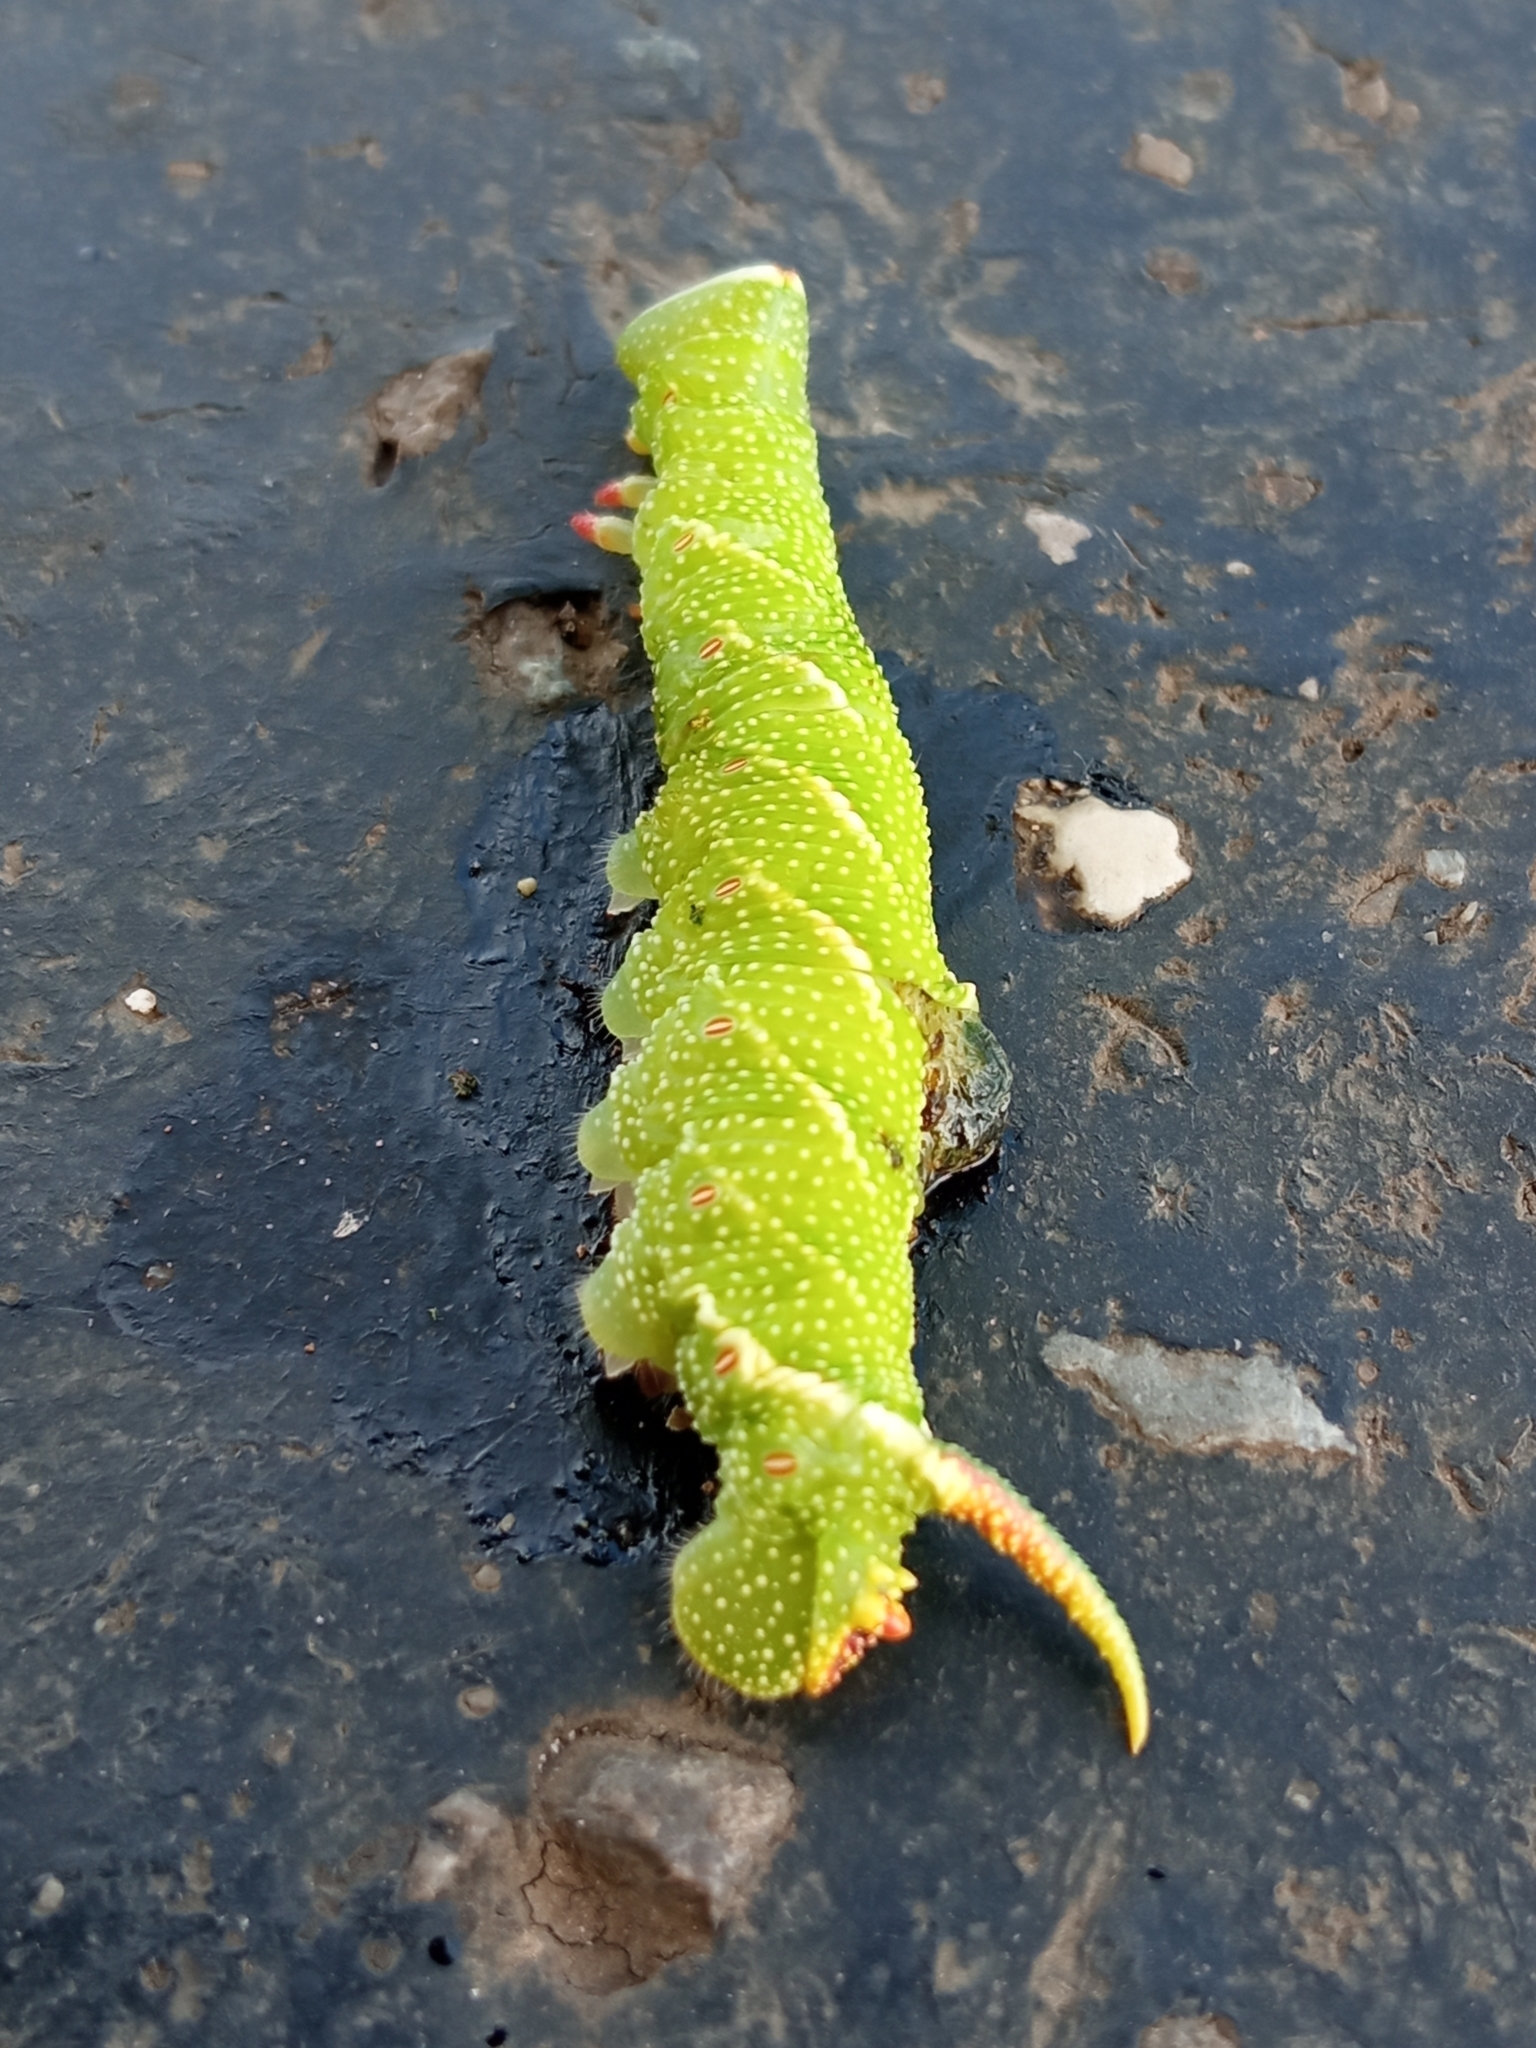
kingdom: Animalia
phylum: Arthropoda
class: Insecta
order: Lepidoptera
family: Sphingidae
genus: Mimas
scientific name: Mimas tiliae
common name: Lime hawk-moth
